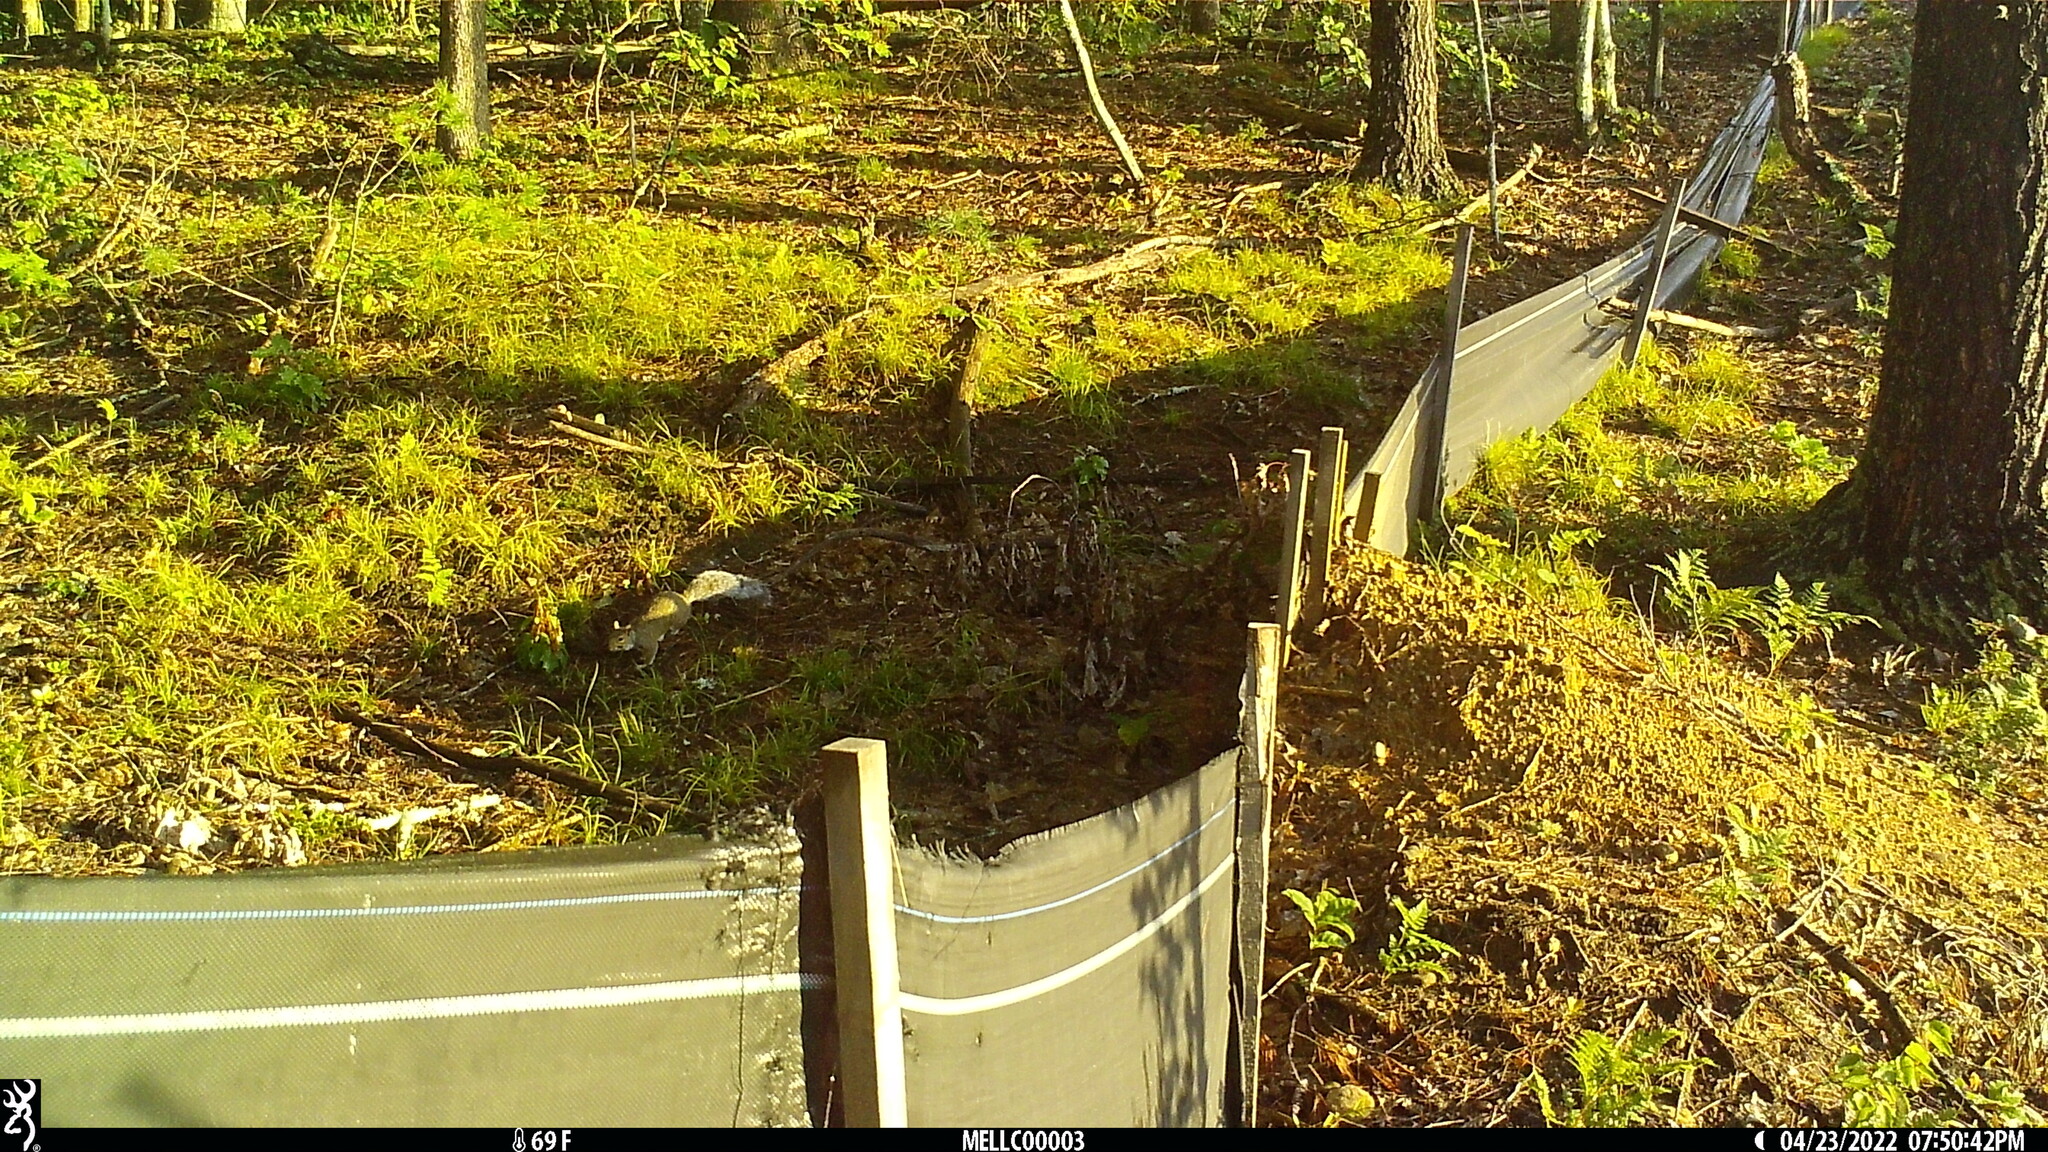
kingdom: Animalia
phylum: Chordata
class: Mammalia
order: Rodentia
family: Sciuridae
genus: Sciurus
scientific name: Sciurus carolinensis
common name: Eastern gray squirrel
